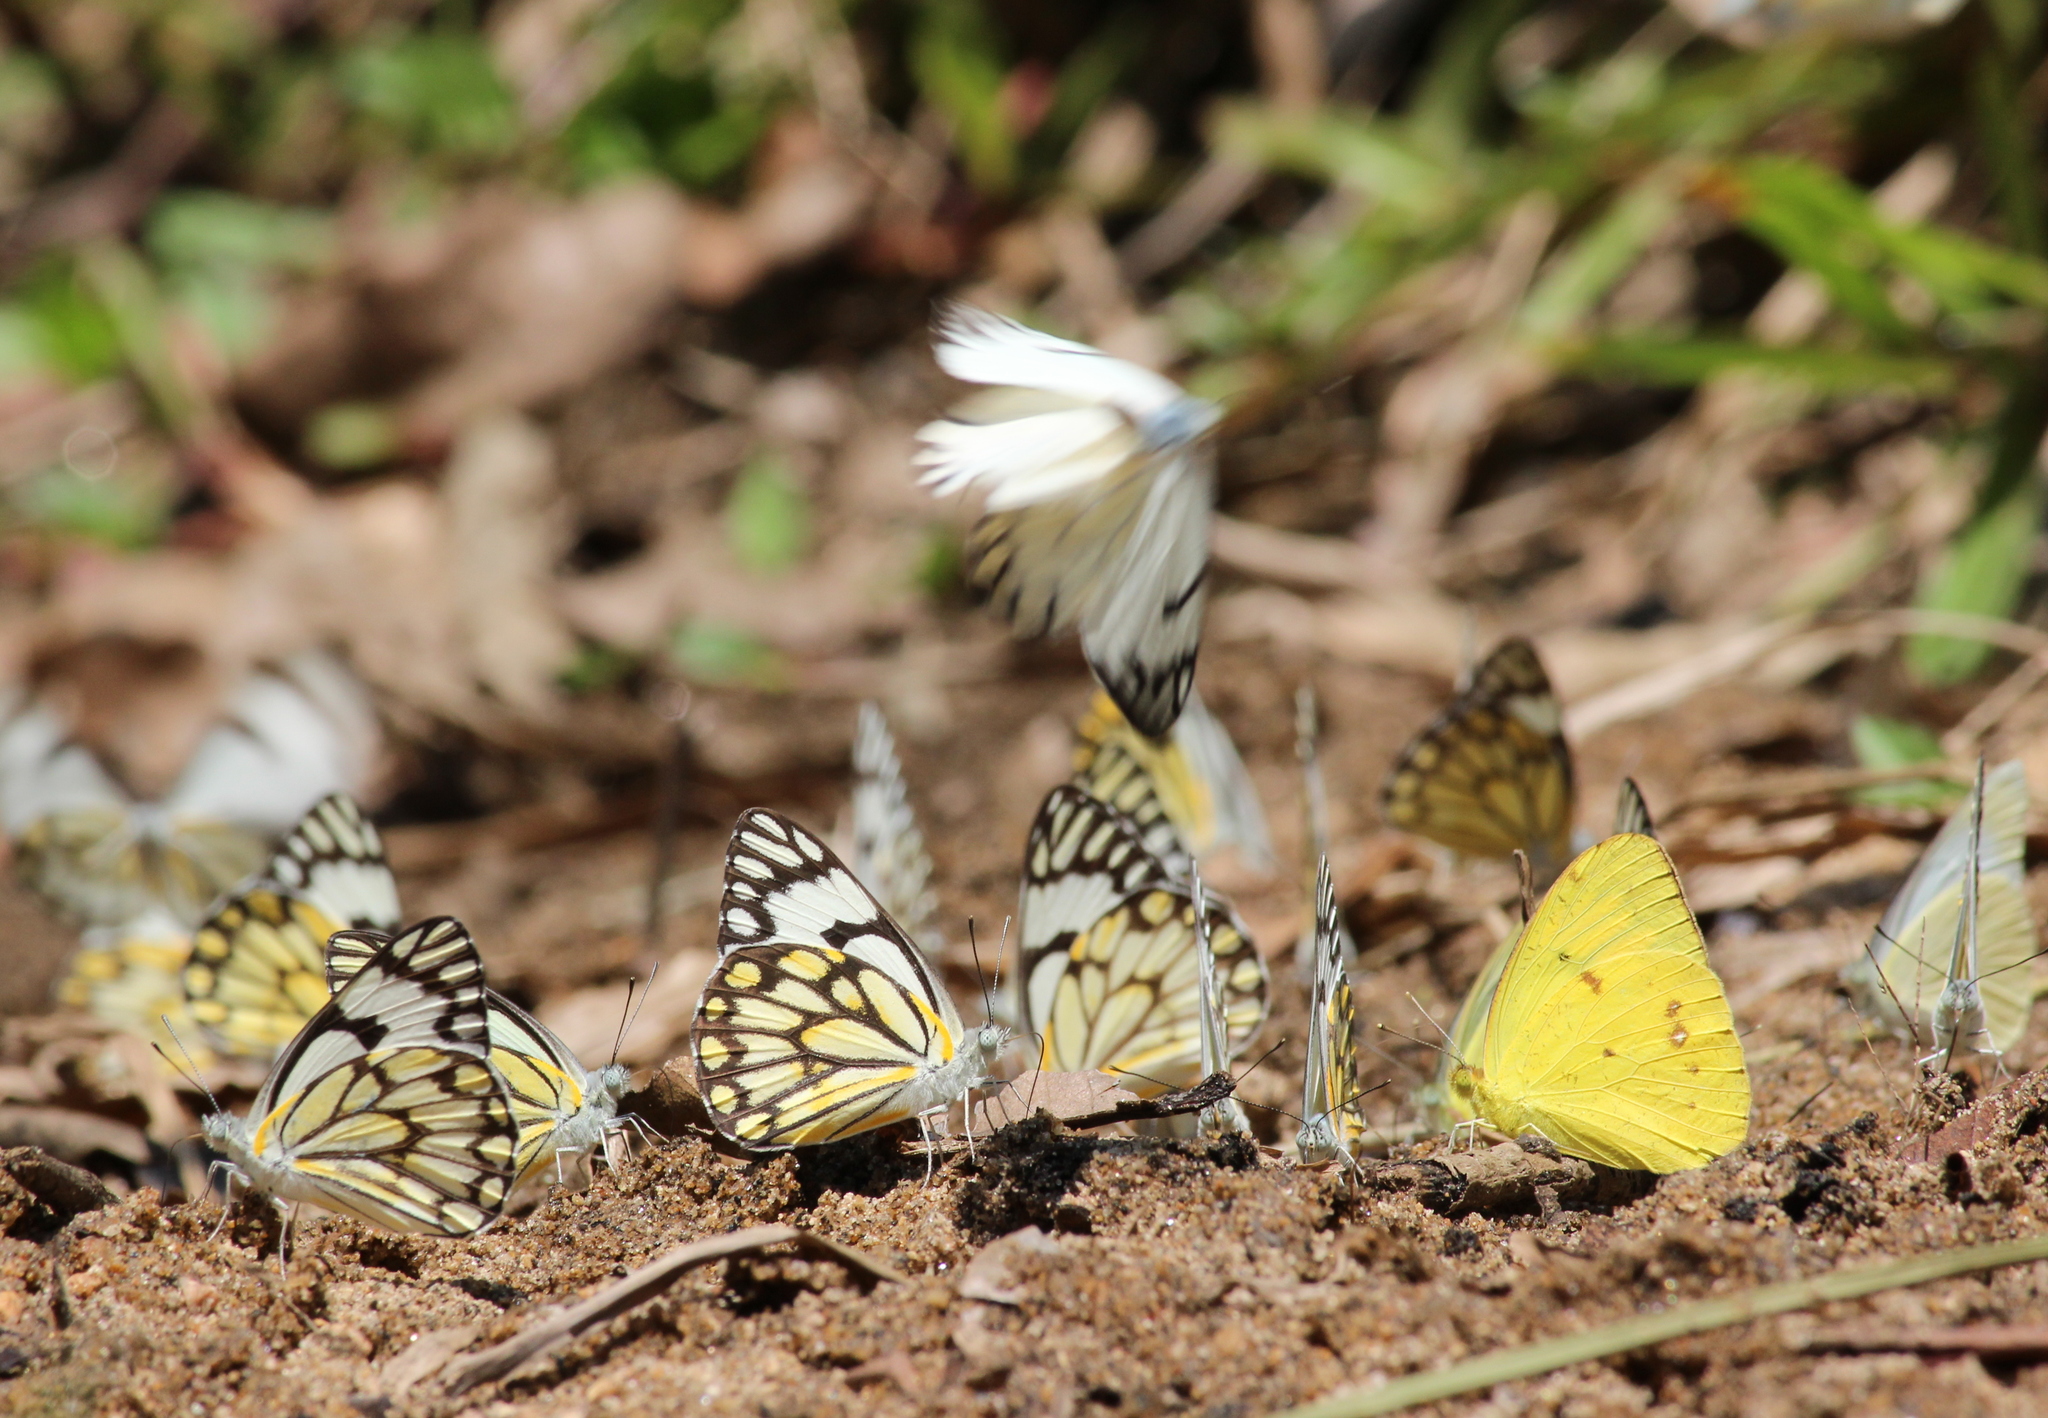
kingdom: Animalia
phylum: Arthropoda
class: Insecta
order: Lepidoptera
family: Pieridae
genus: Belenois
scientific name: Belenois aurota
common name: Brown-veined white
